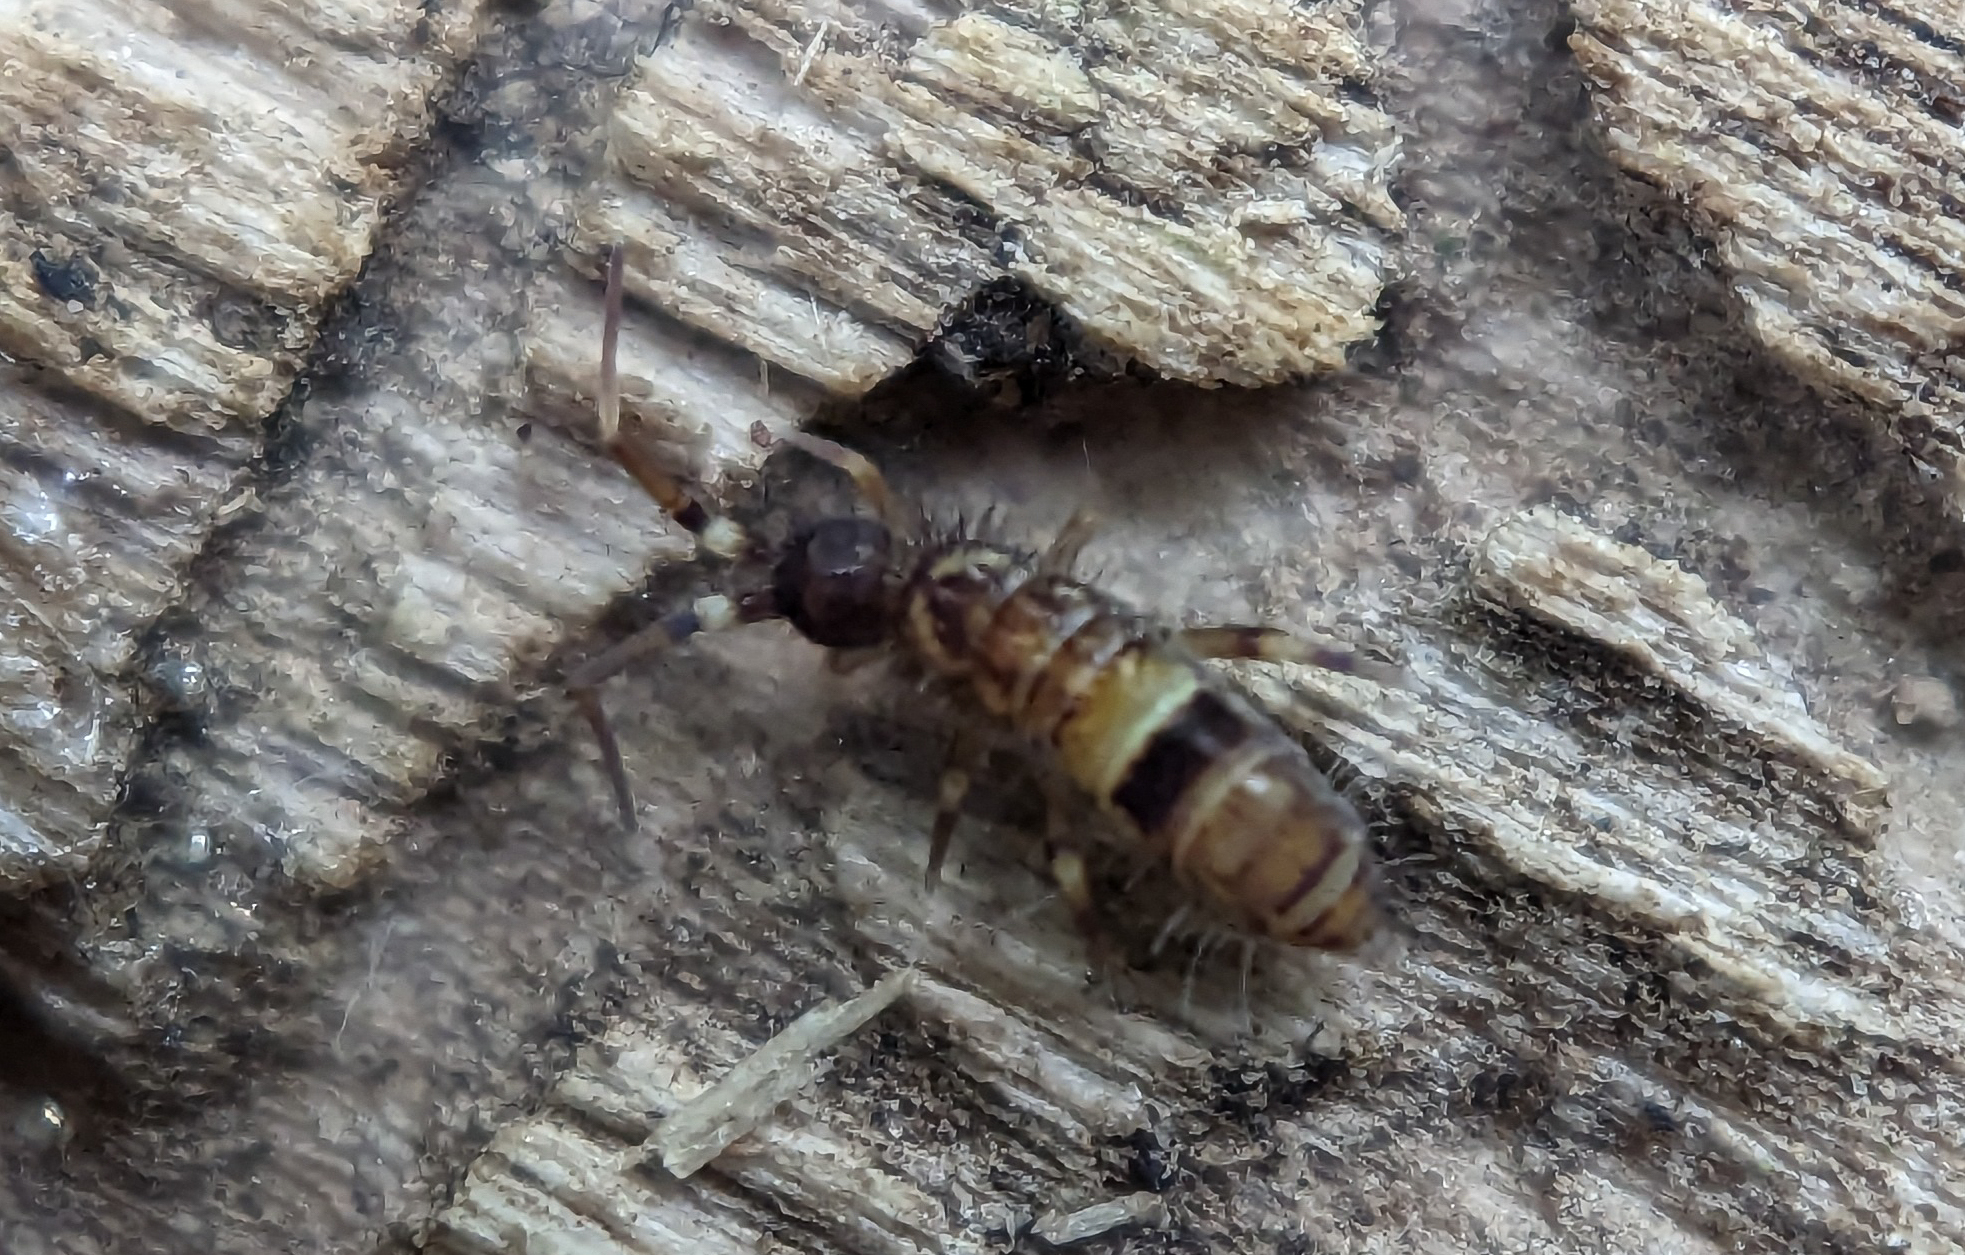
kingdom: Animalia
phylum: Arthropoda
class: Collembola
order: Entomobryomorpha
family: Orchesellidae
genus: Orchesella
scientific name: Orchesella cincta
